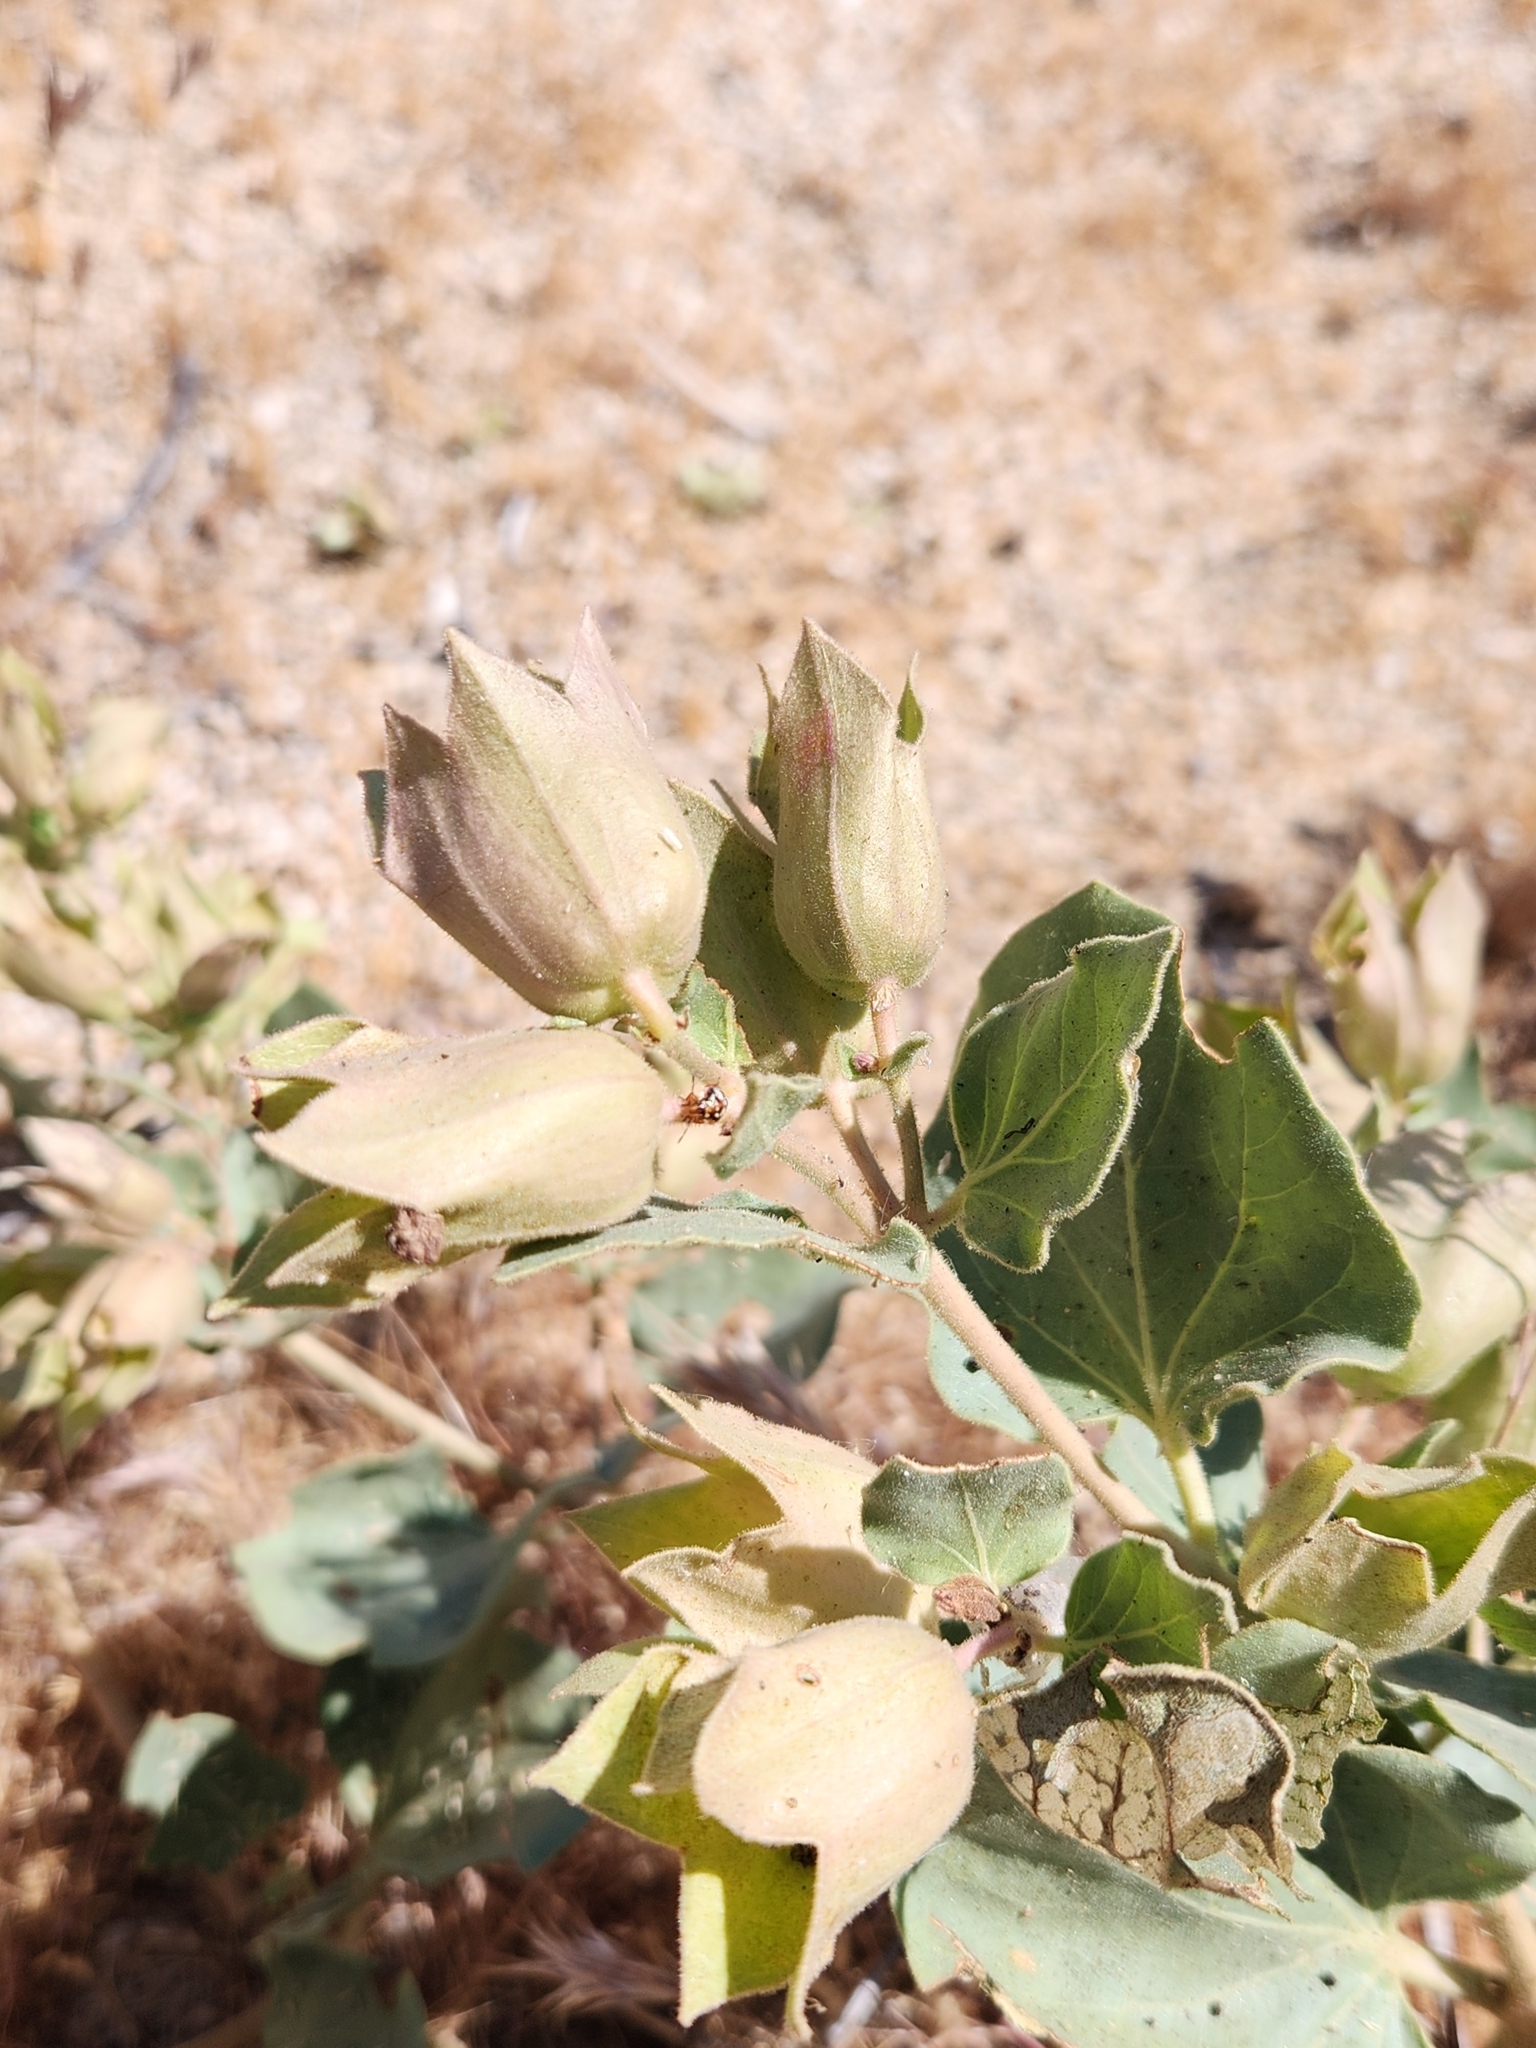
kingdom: Plantae
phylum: Tracheophyta
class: Magnoliopsida
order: Caryophyllales
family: Nyctaginaceae
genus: Mirabilis
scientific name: Mirabilis multiflora
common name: Froebel's four-o'clock
